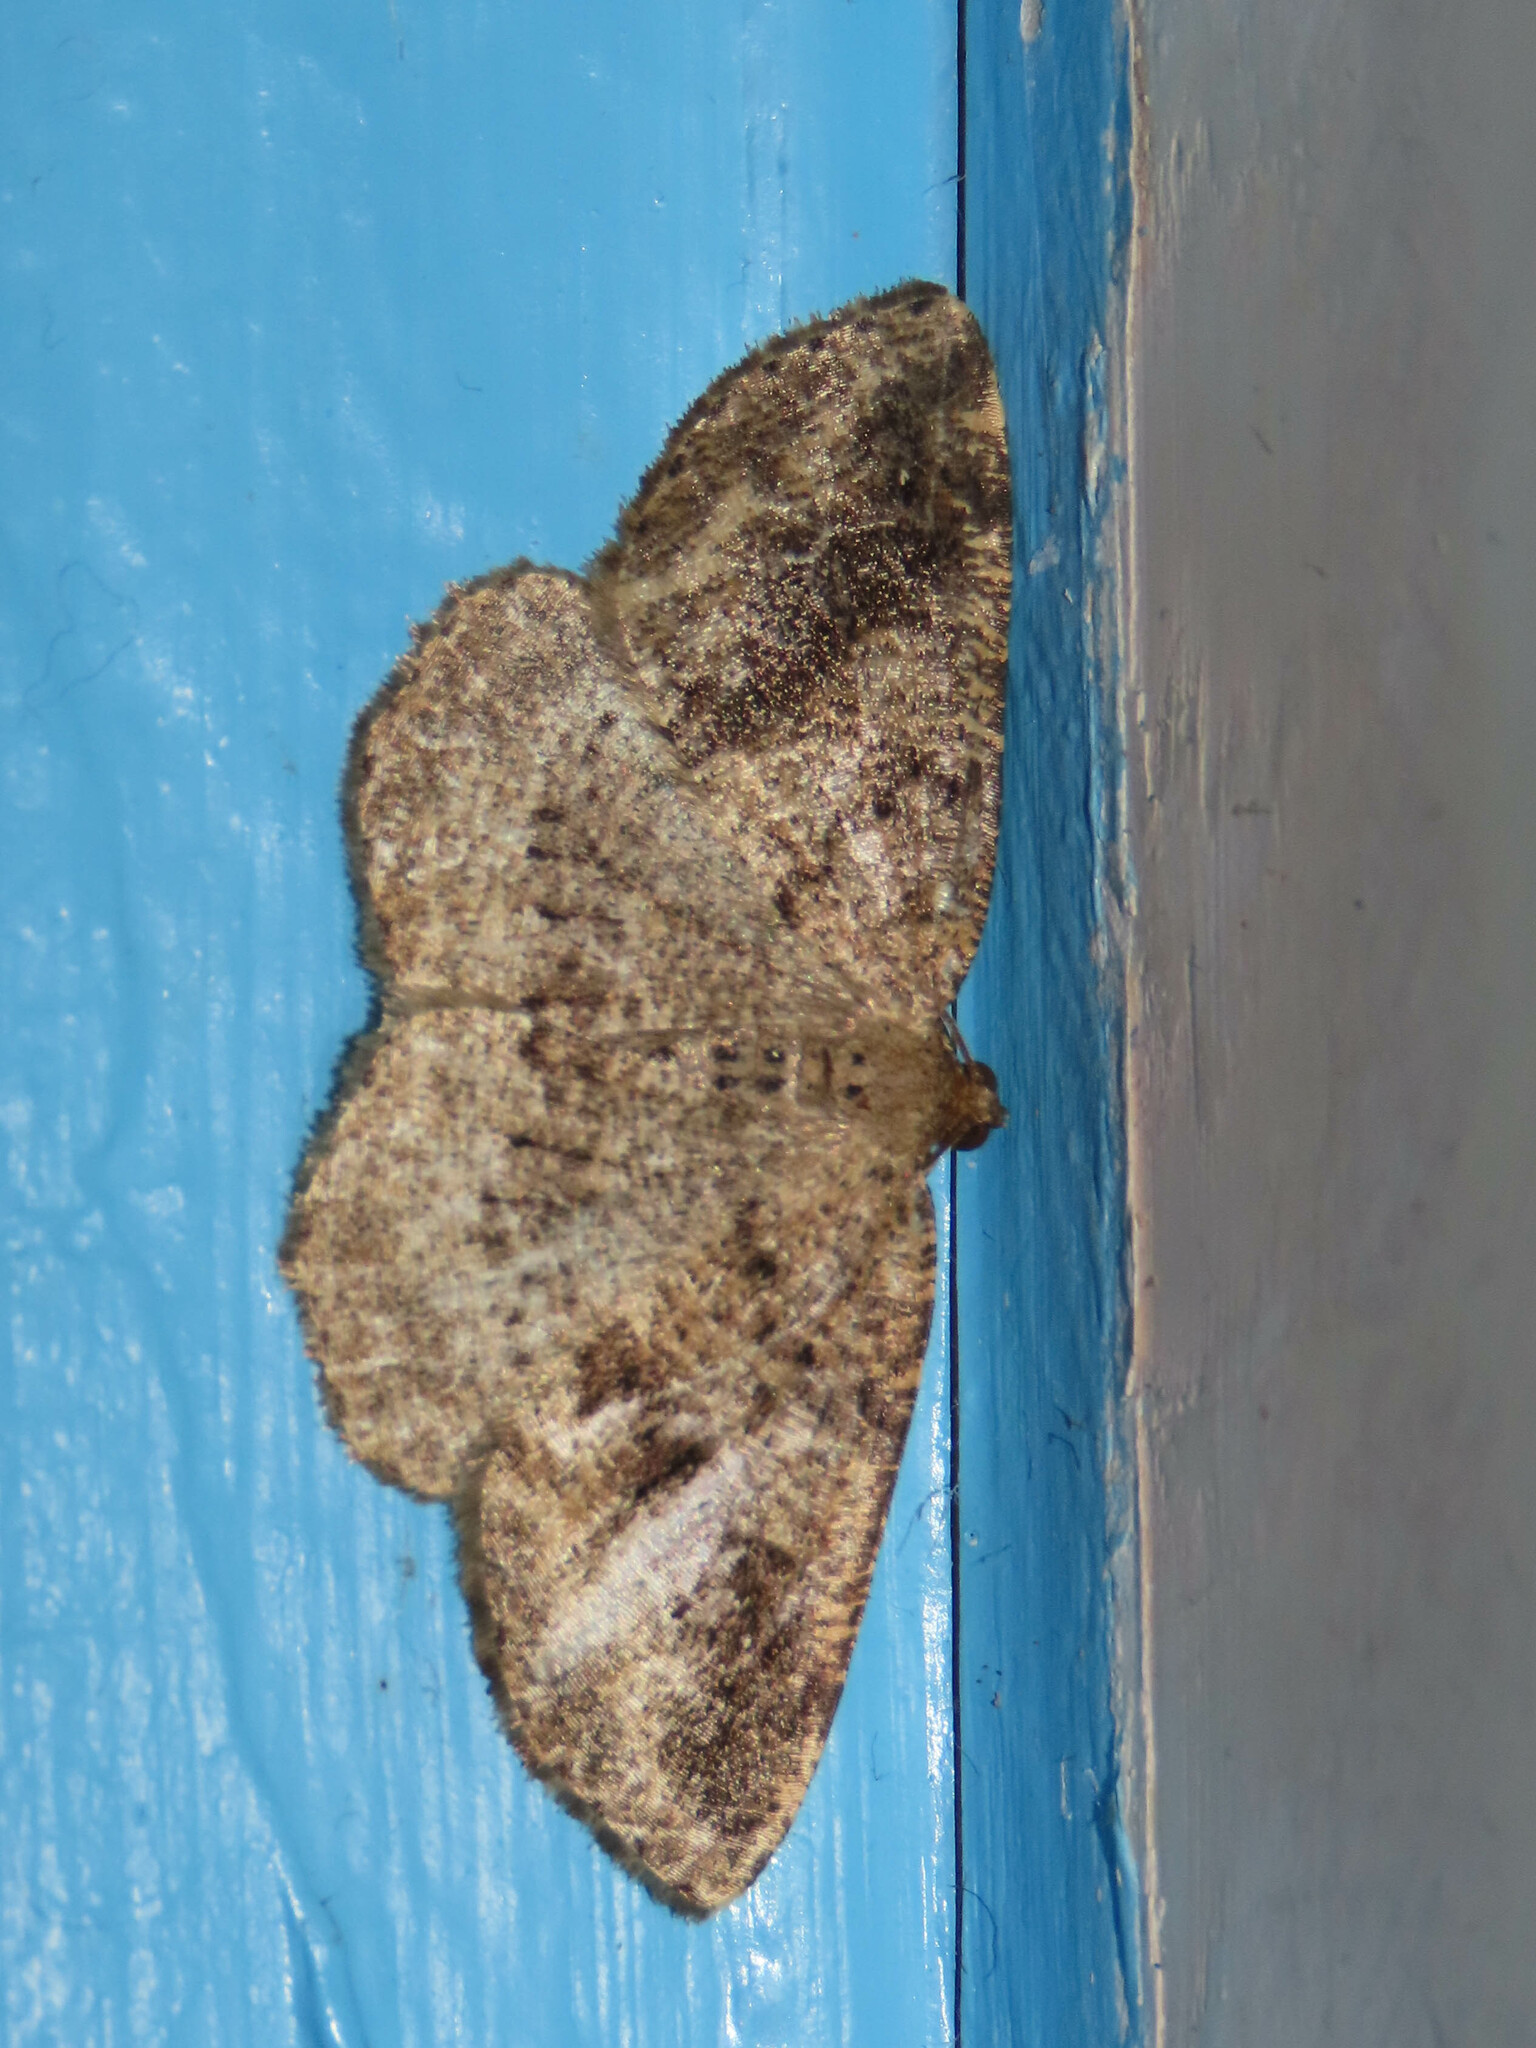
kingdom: Animalia
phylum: Arthropoda
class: Insecta
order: Lepidoptera
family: Geometridae
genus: Homochlodes
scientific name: Homochlodes fritillaria
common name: Pale homochlodes
